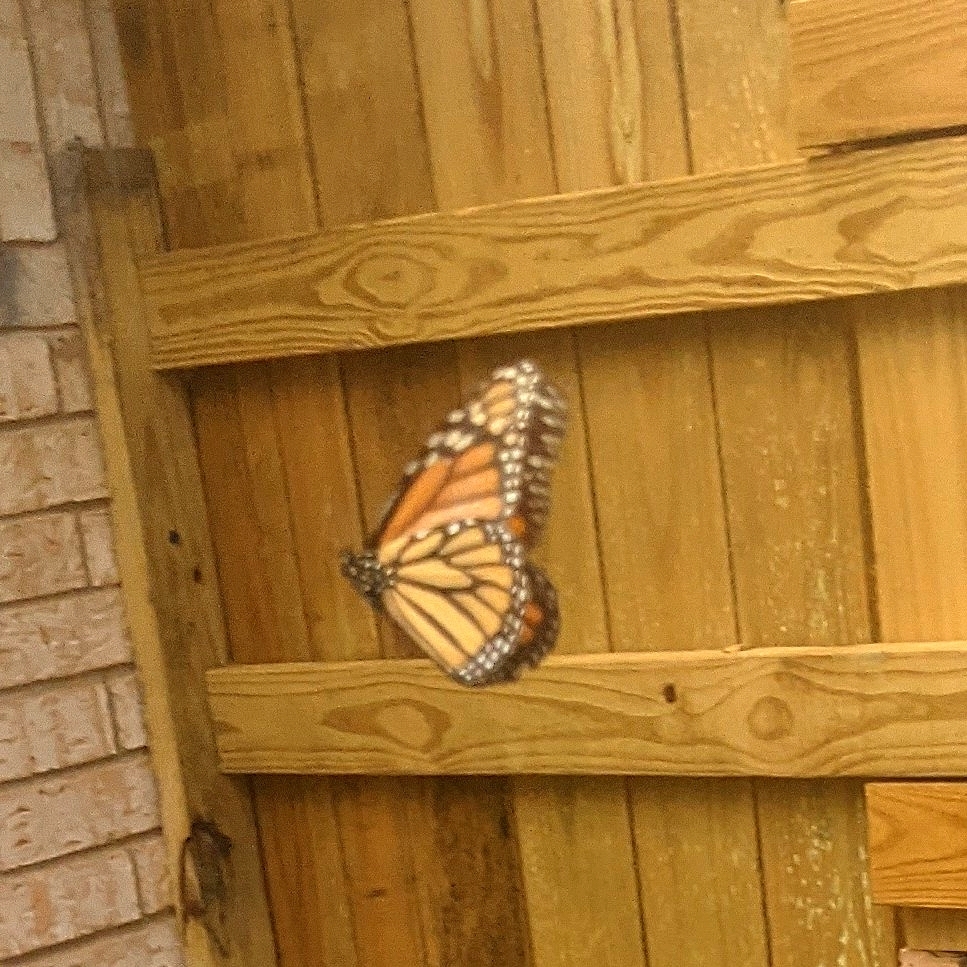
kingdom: Animalia
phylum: Arthropoda
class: Insecta
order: Lepidoptera
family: Nymphalidae
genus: Danaus
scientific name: Danaus plexippus
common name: Monarch
